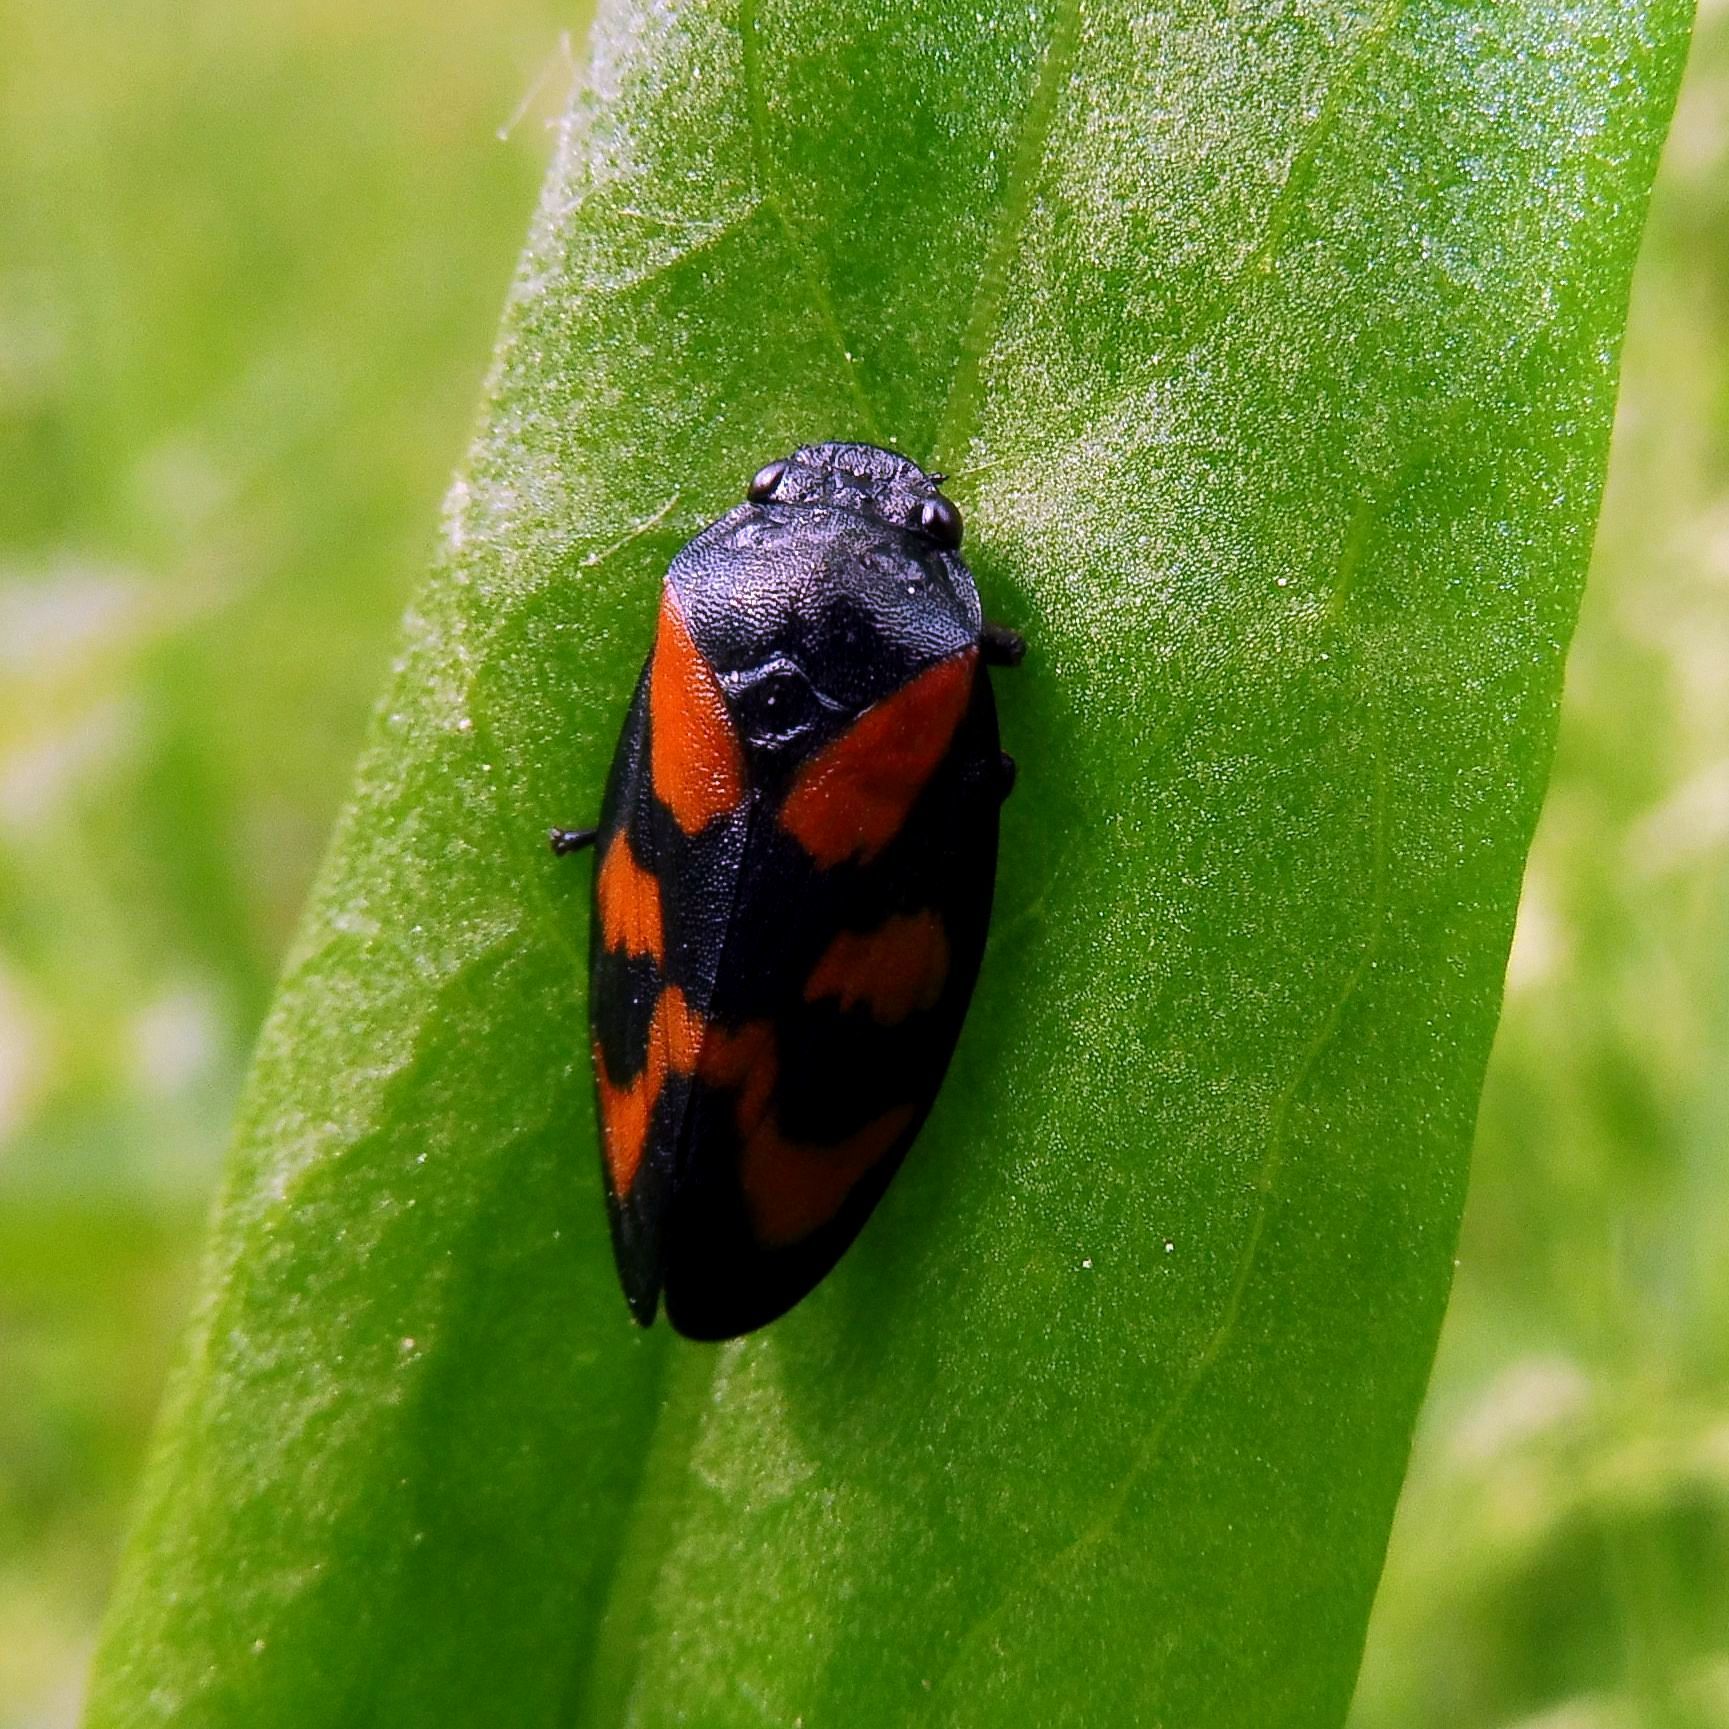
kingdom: Animalia
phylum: Arthropoda
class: Insecta
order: Hemiptera
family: Cercopidae
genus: Cercopis
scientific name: Cercopis vulnerata
